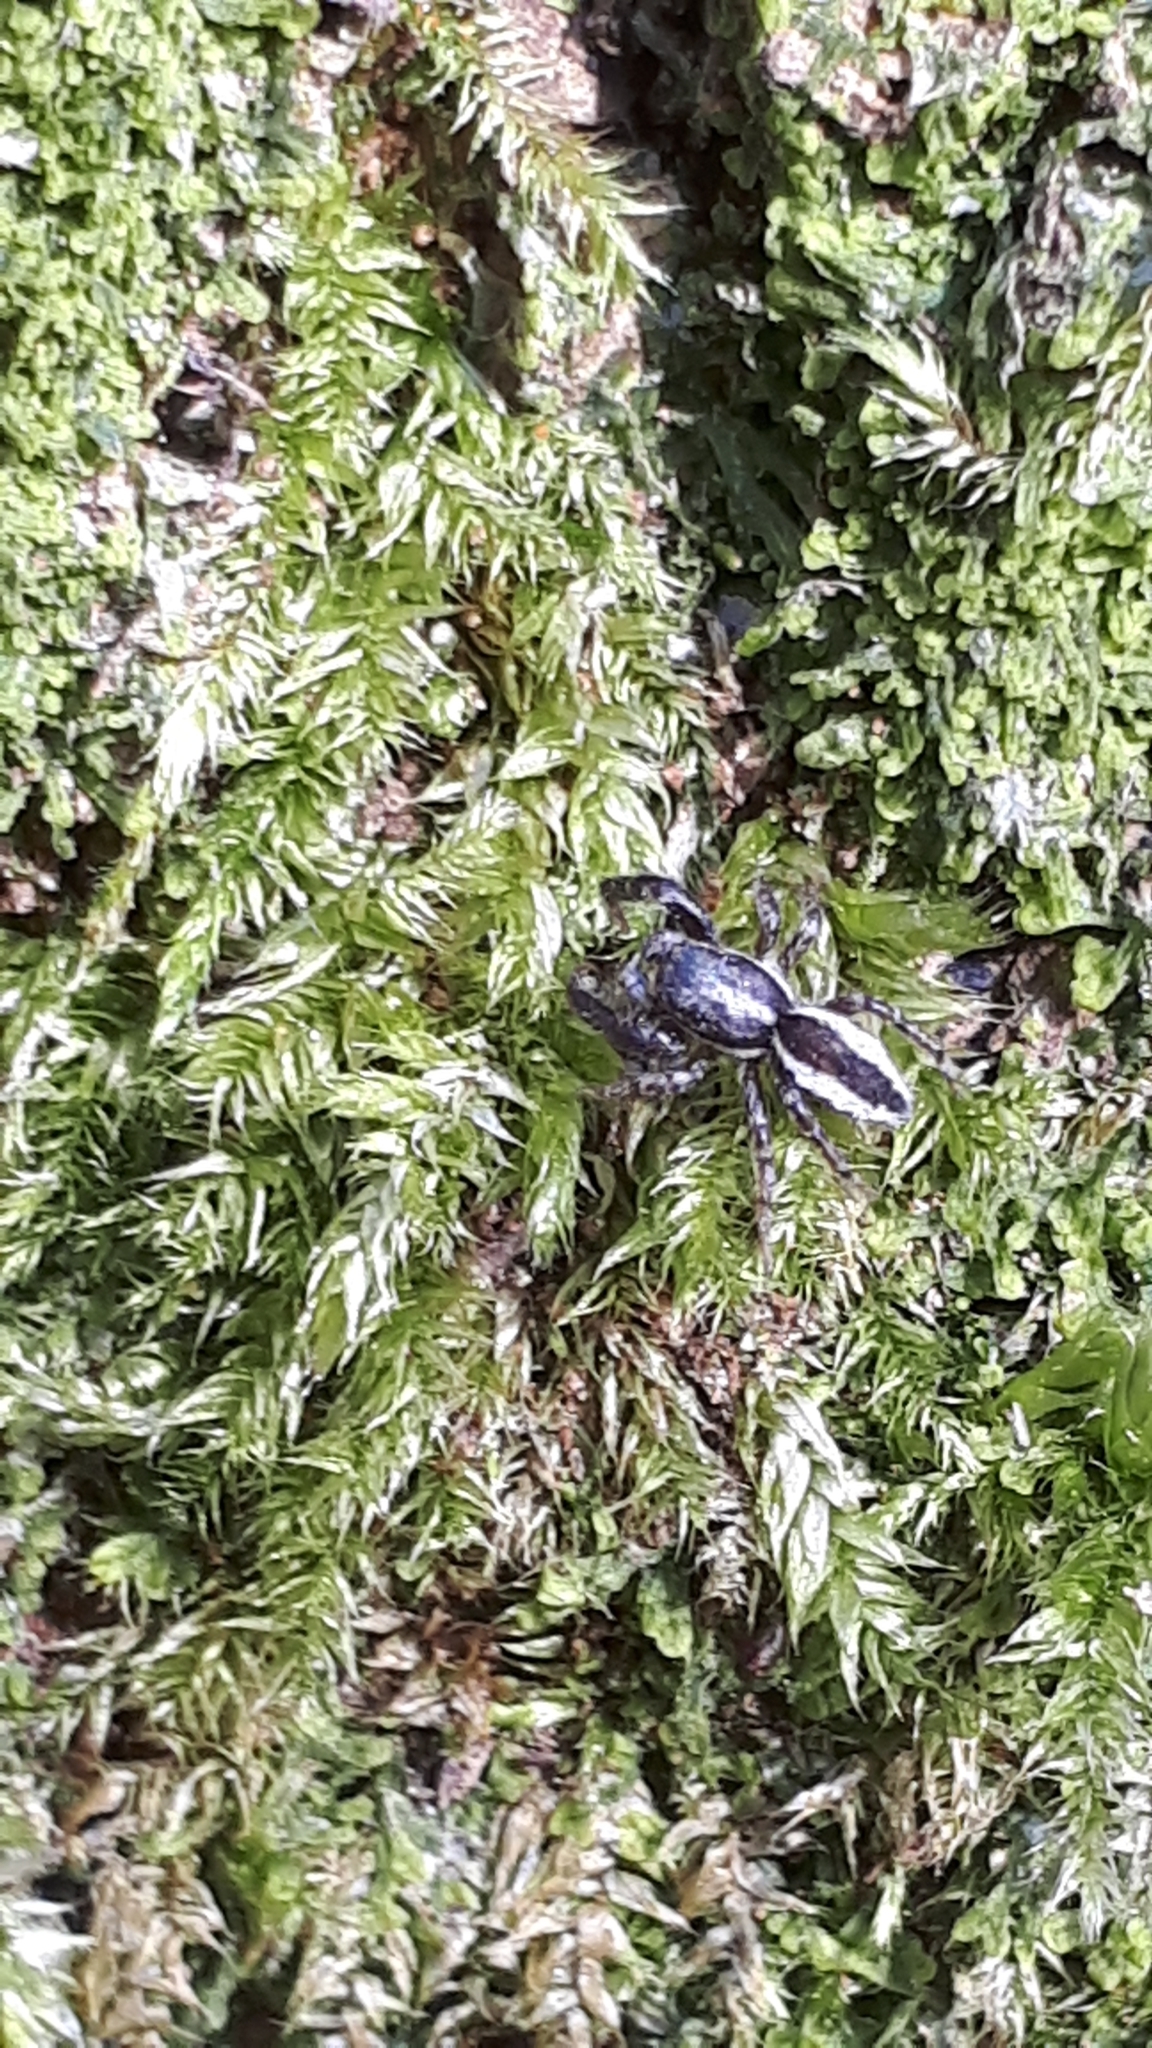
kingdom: Animalia
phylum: Arthropoda
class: Arachnida
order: Araneae
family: Salticidae
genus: Pseudicius
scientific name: Pseudicius encarpatus
